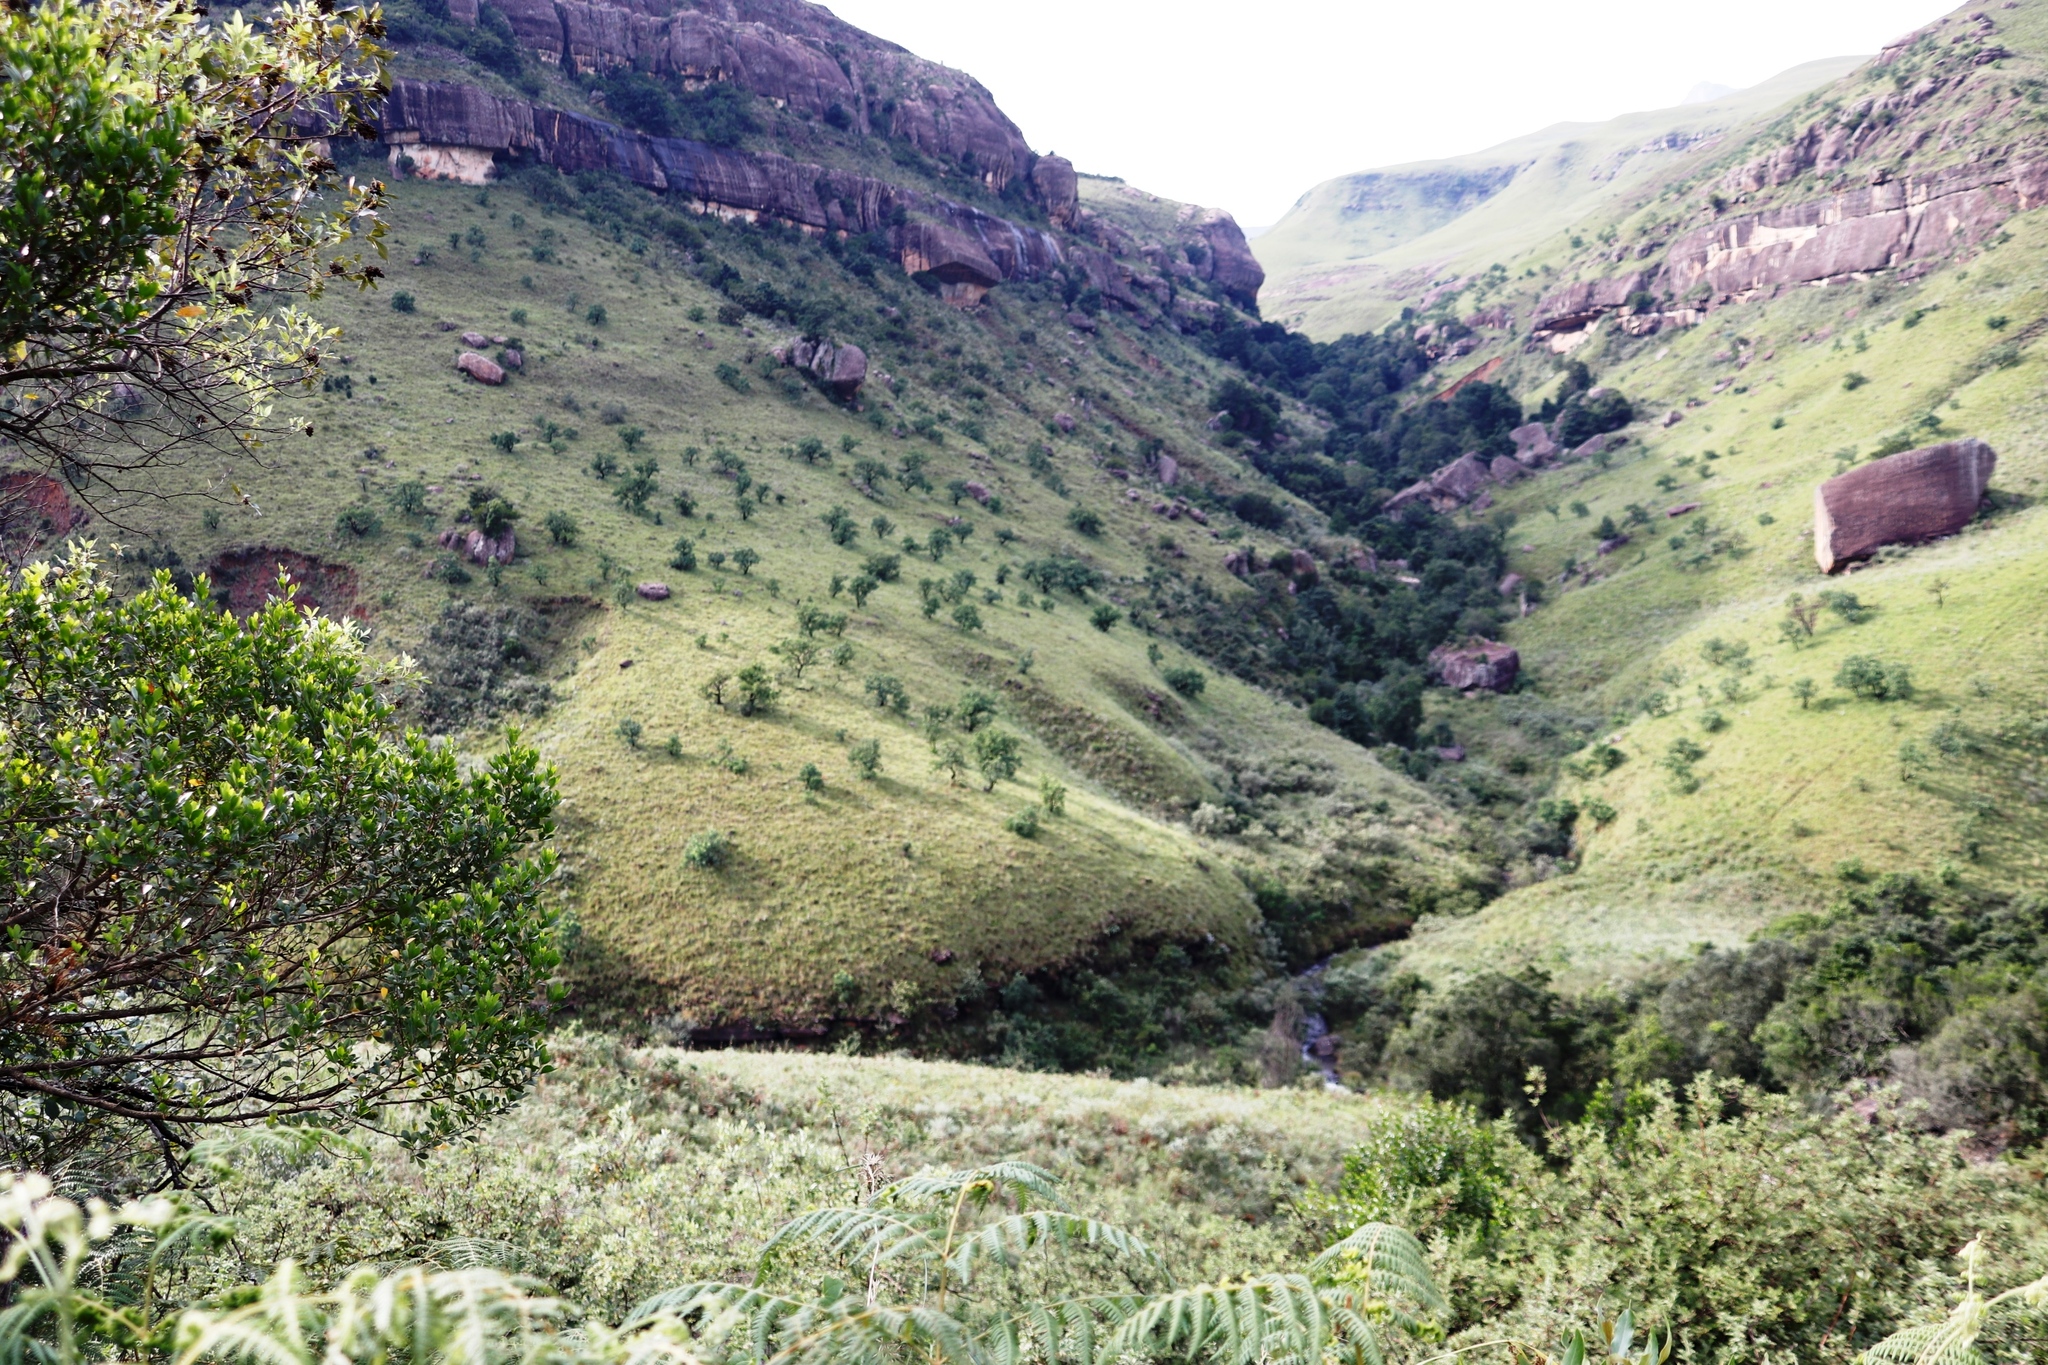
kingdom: Plantae
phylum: Tracheophyta
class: Magnoliopsida
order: Proteales
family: Proteaceae
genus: Protea
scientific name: Protea caffra
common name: Common sugarbush
